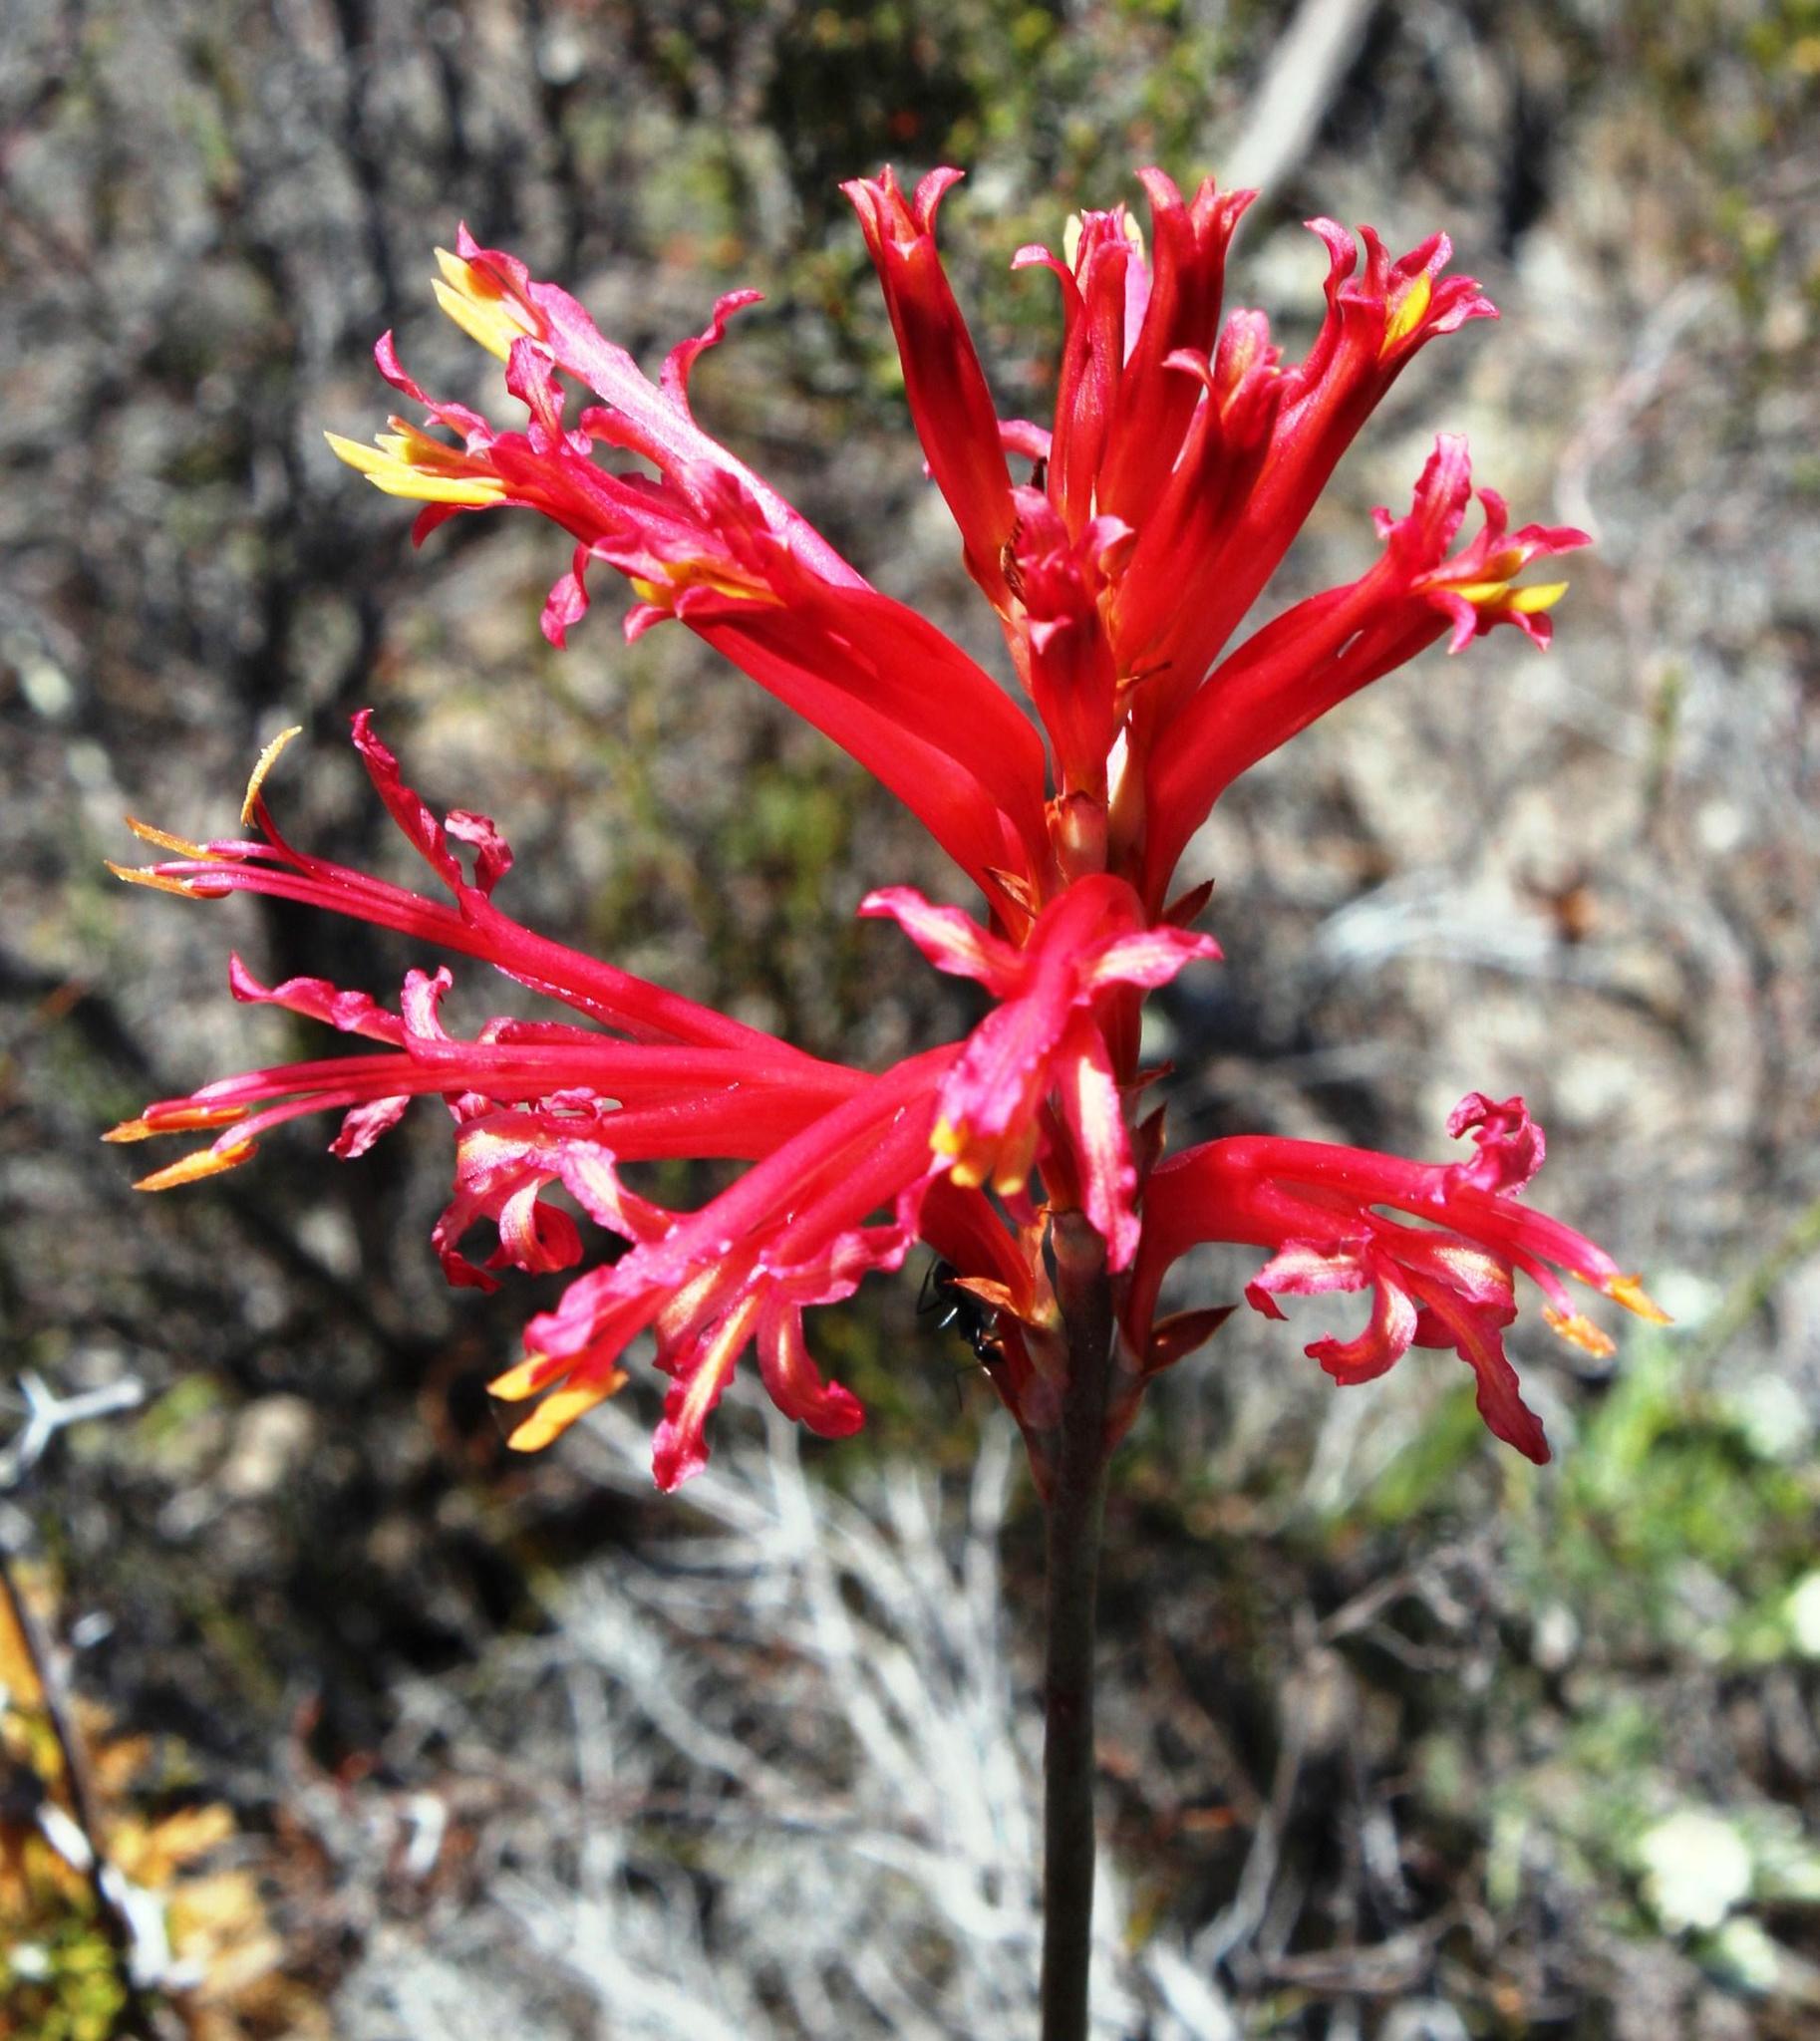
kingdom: Plantae
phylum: Tracheophyta
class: Liliopsida
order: Asparagales
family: Iridaceae
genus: Tritoniopsis
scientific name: Tritoniopsis antholyza
